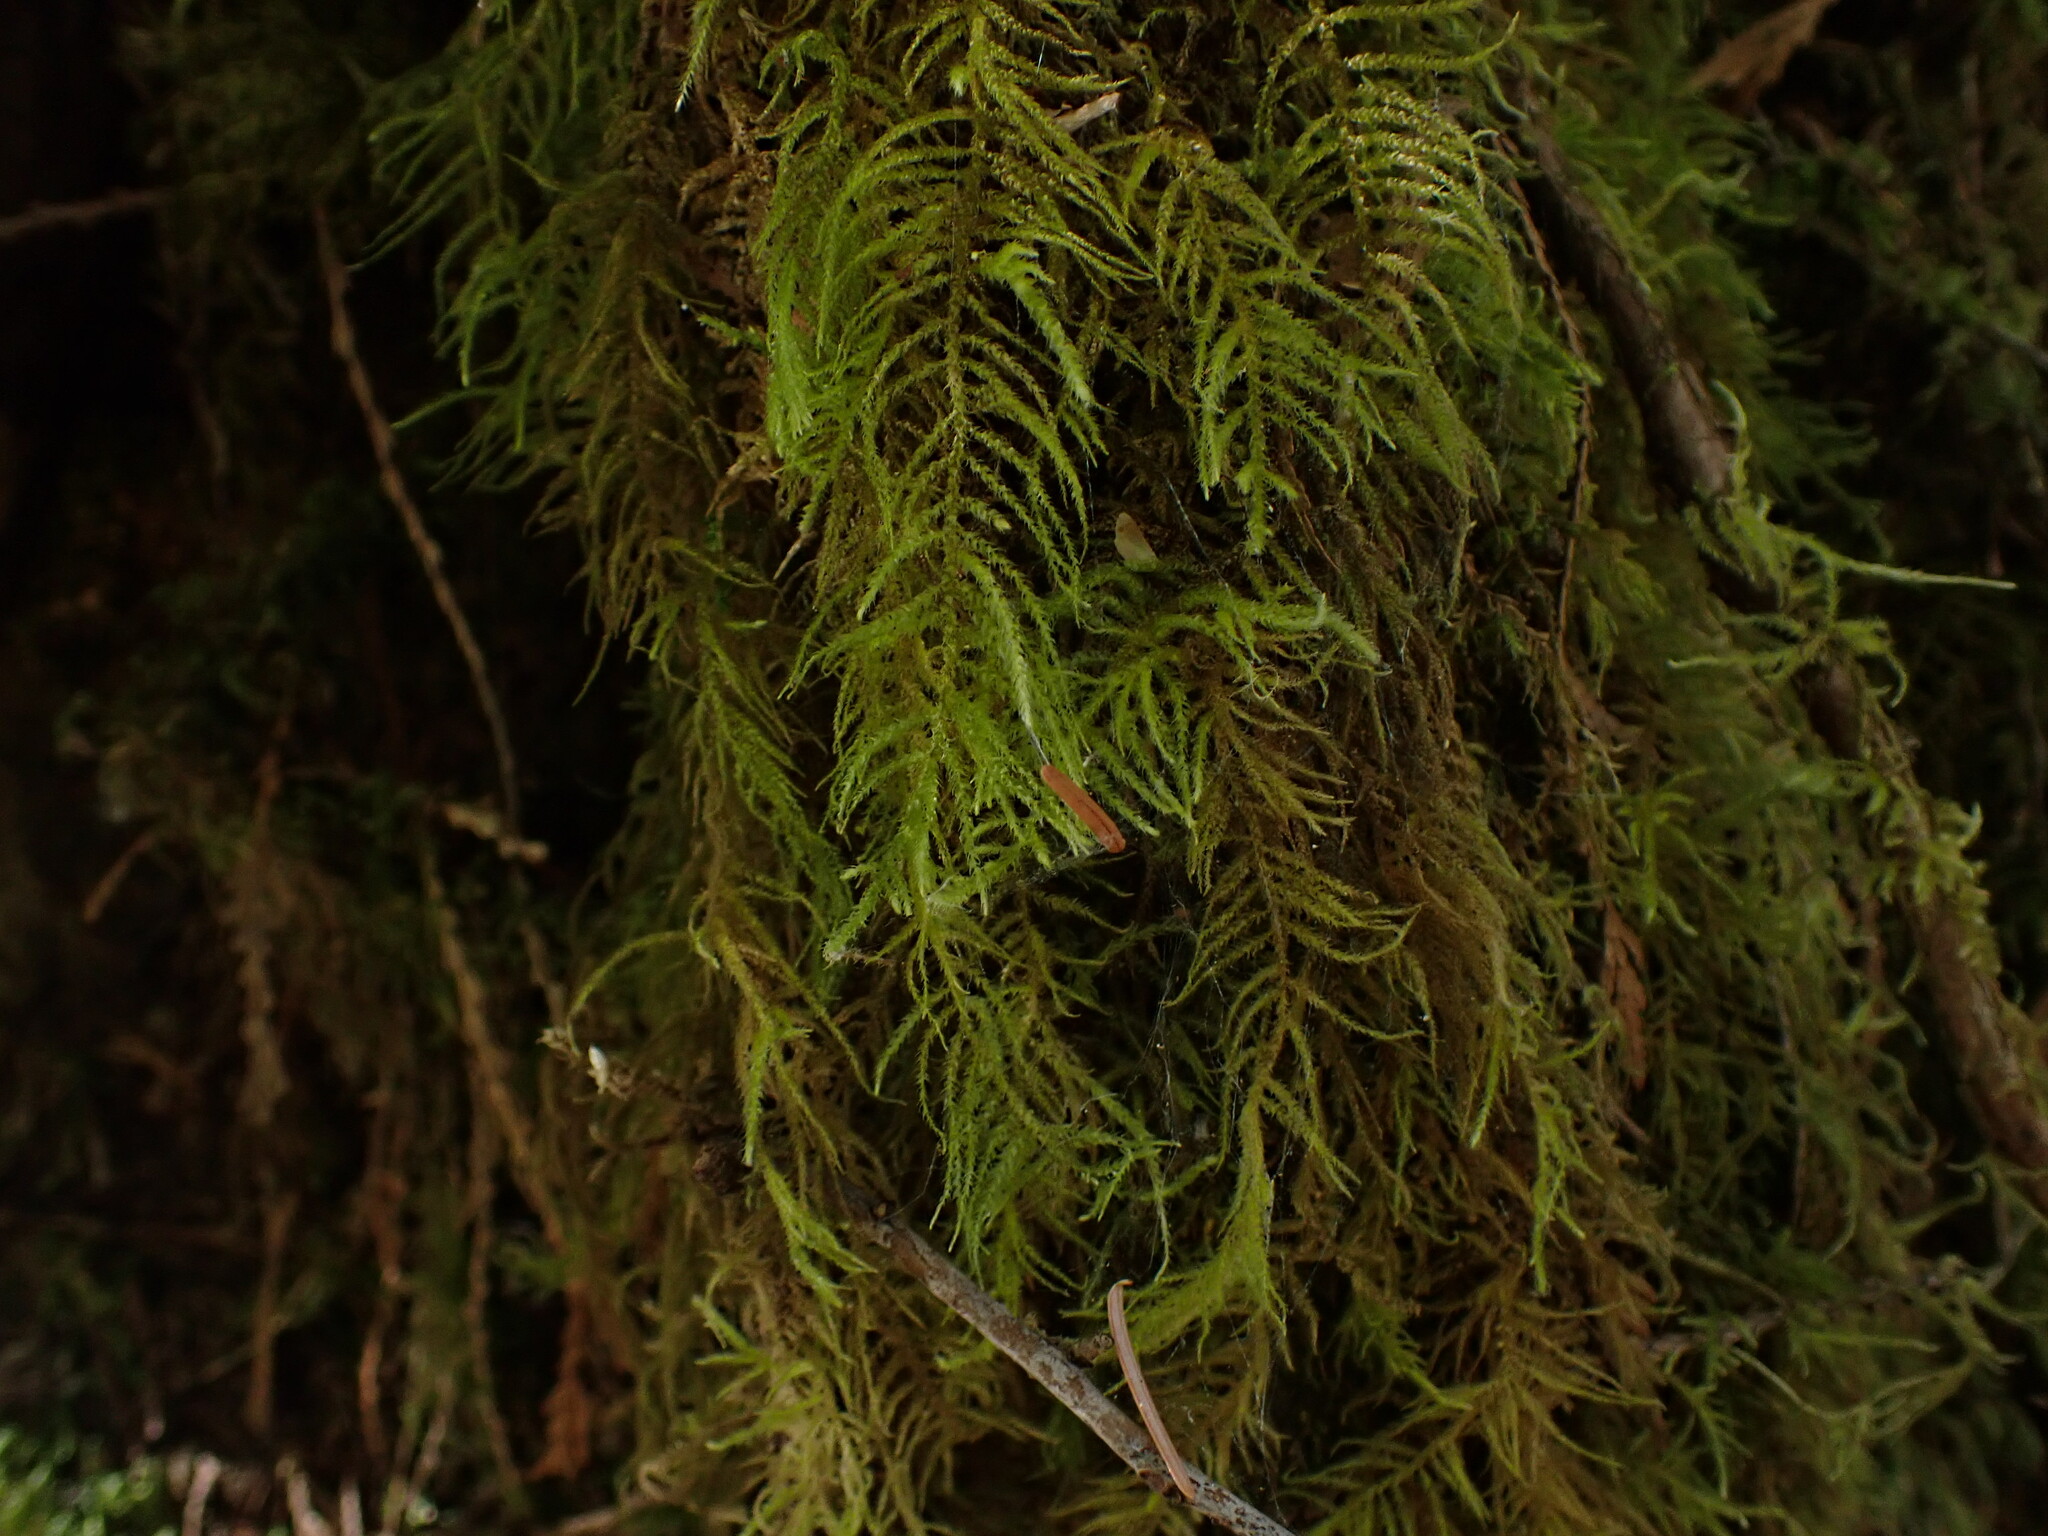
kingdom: Plantae
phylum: Bryophyta
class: Bryopsida
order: Hypnales
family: Brachytheciaceae
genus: Kindbergia
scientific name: Kindbergia oregana
